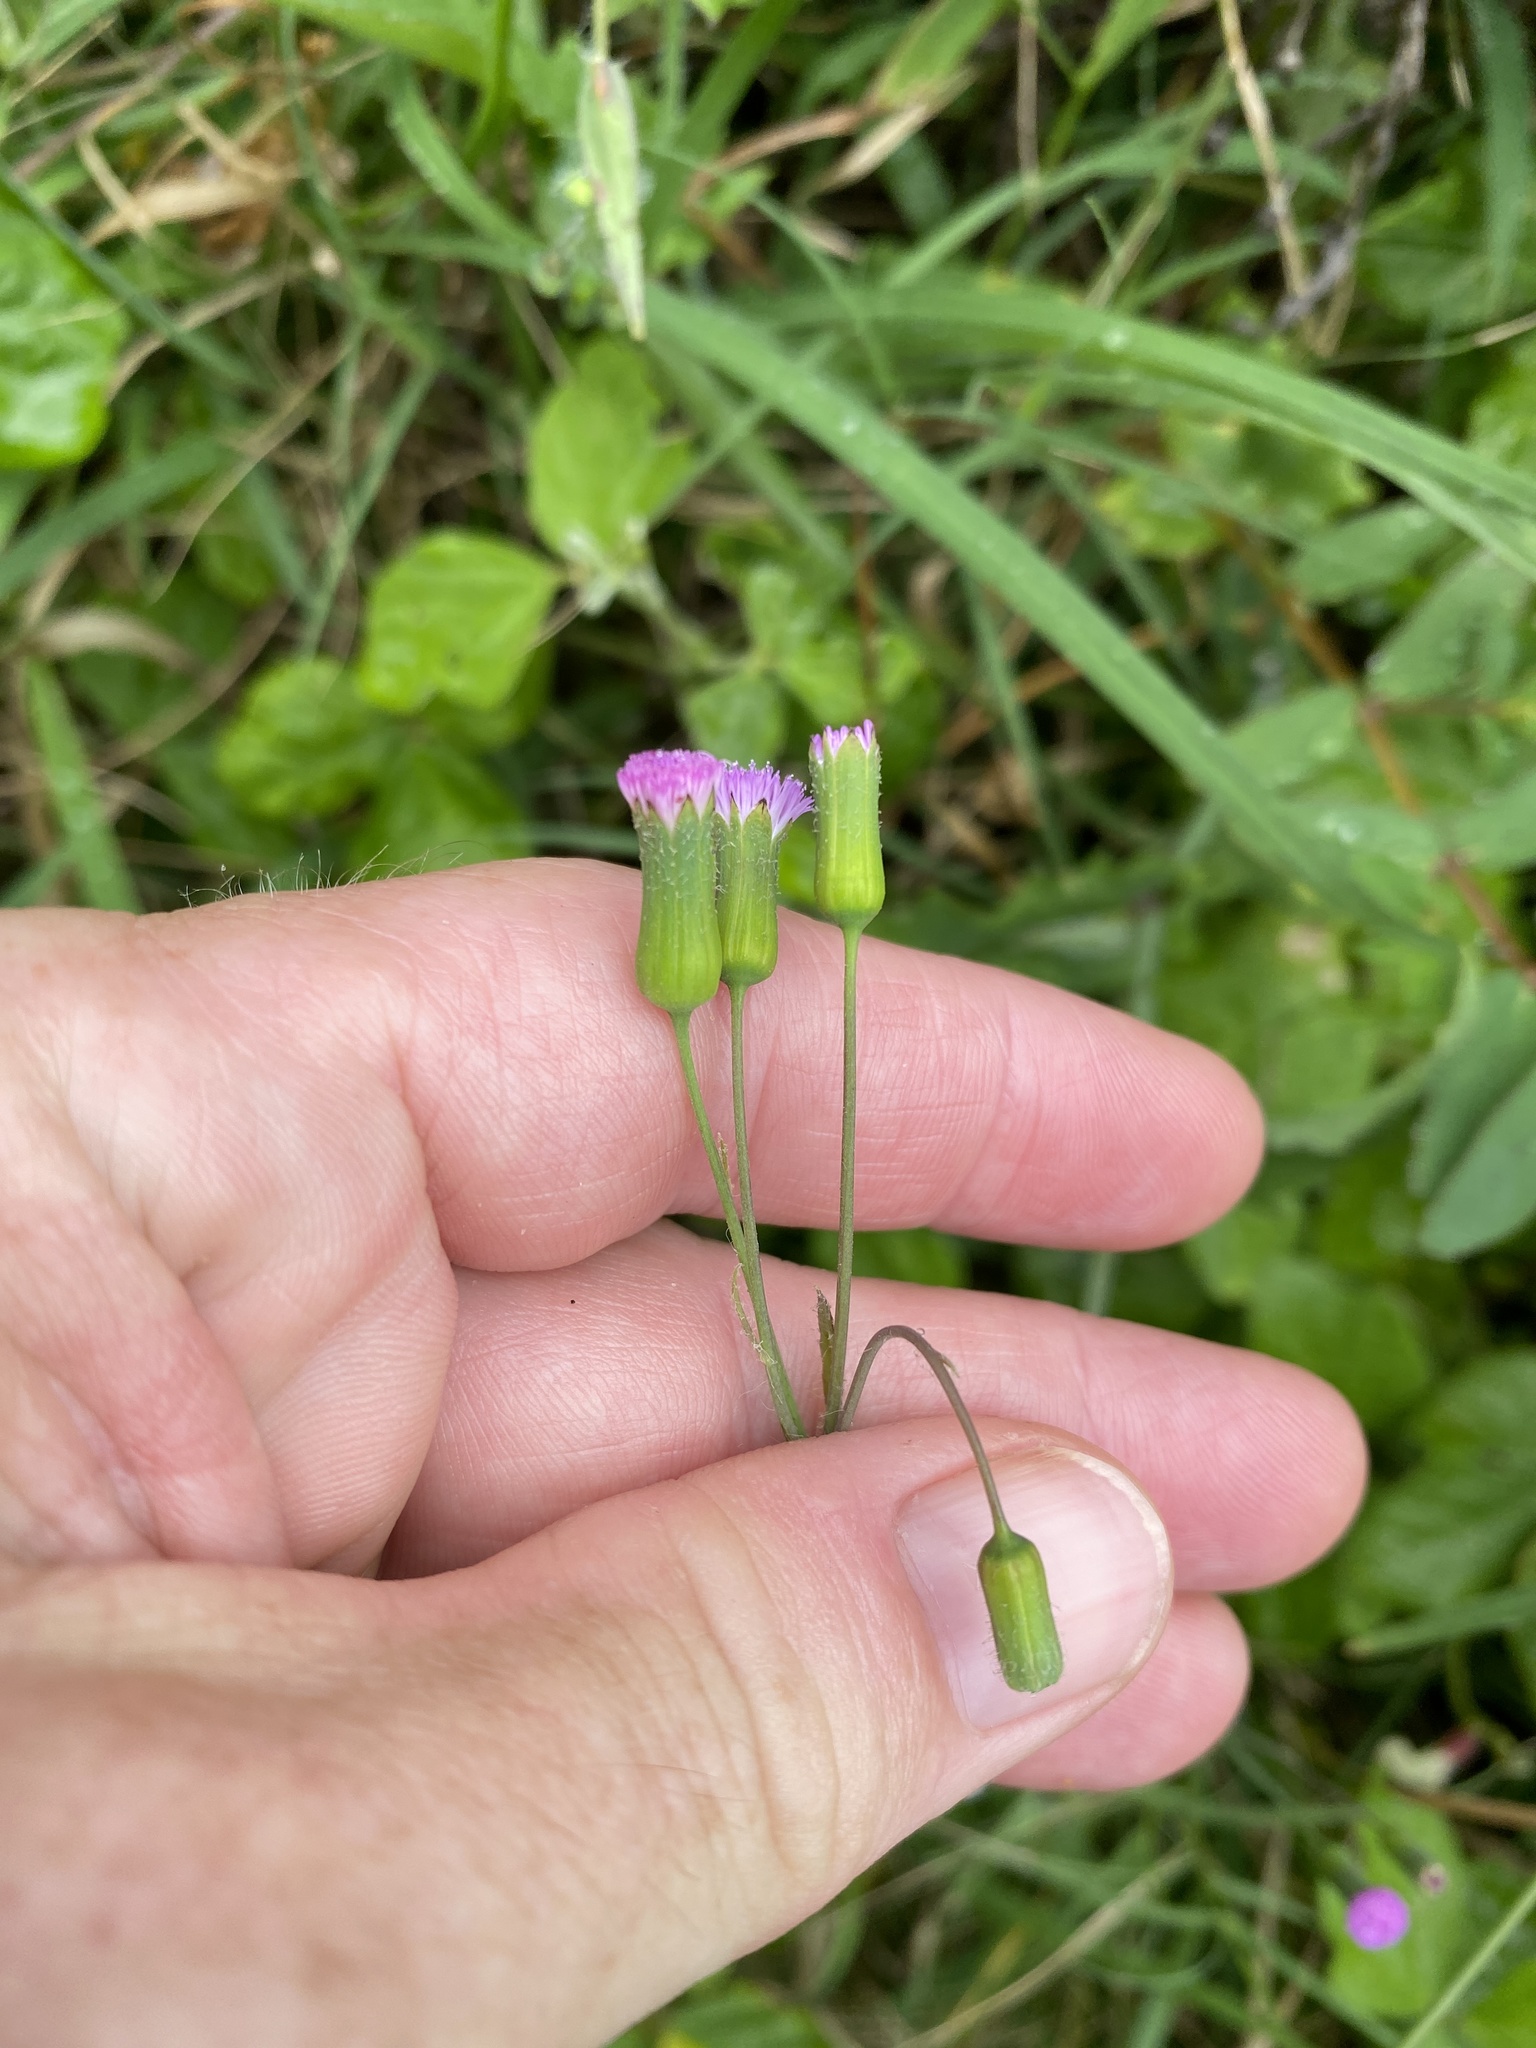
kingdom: Plantae
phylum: Tracheophyta
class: Magnoliopsida
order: Asterales
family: Asteraceae
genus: Emilia
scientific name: Emilia javanica
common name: Tassel-flower
